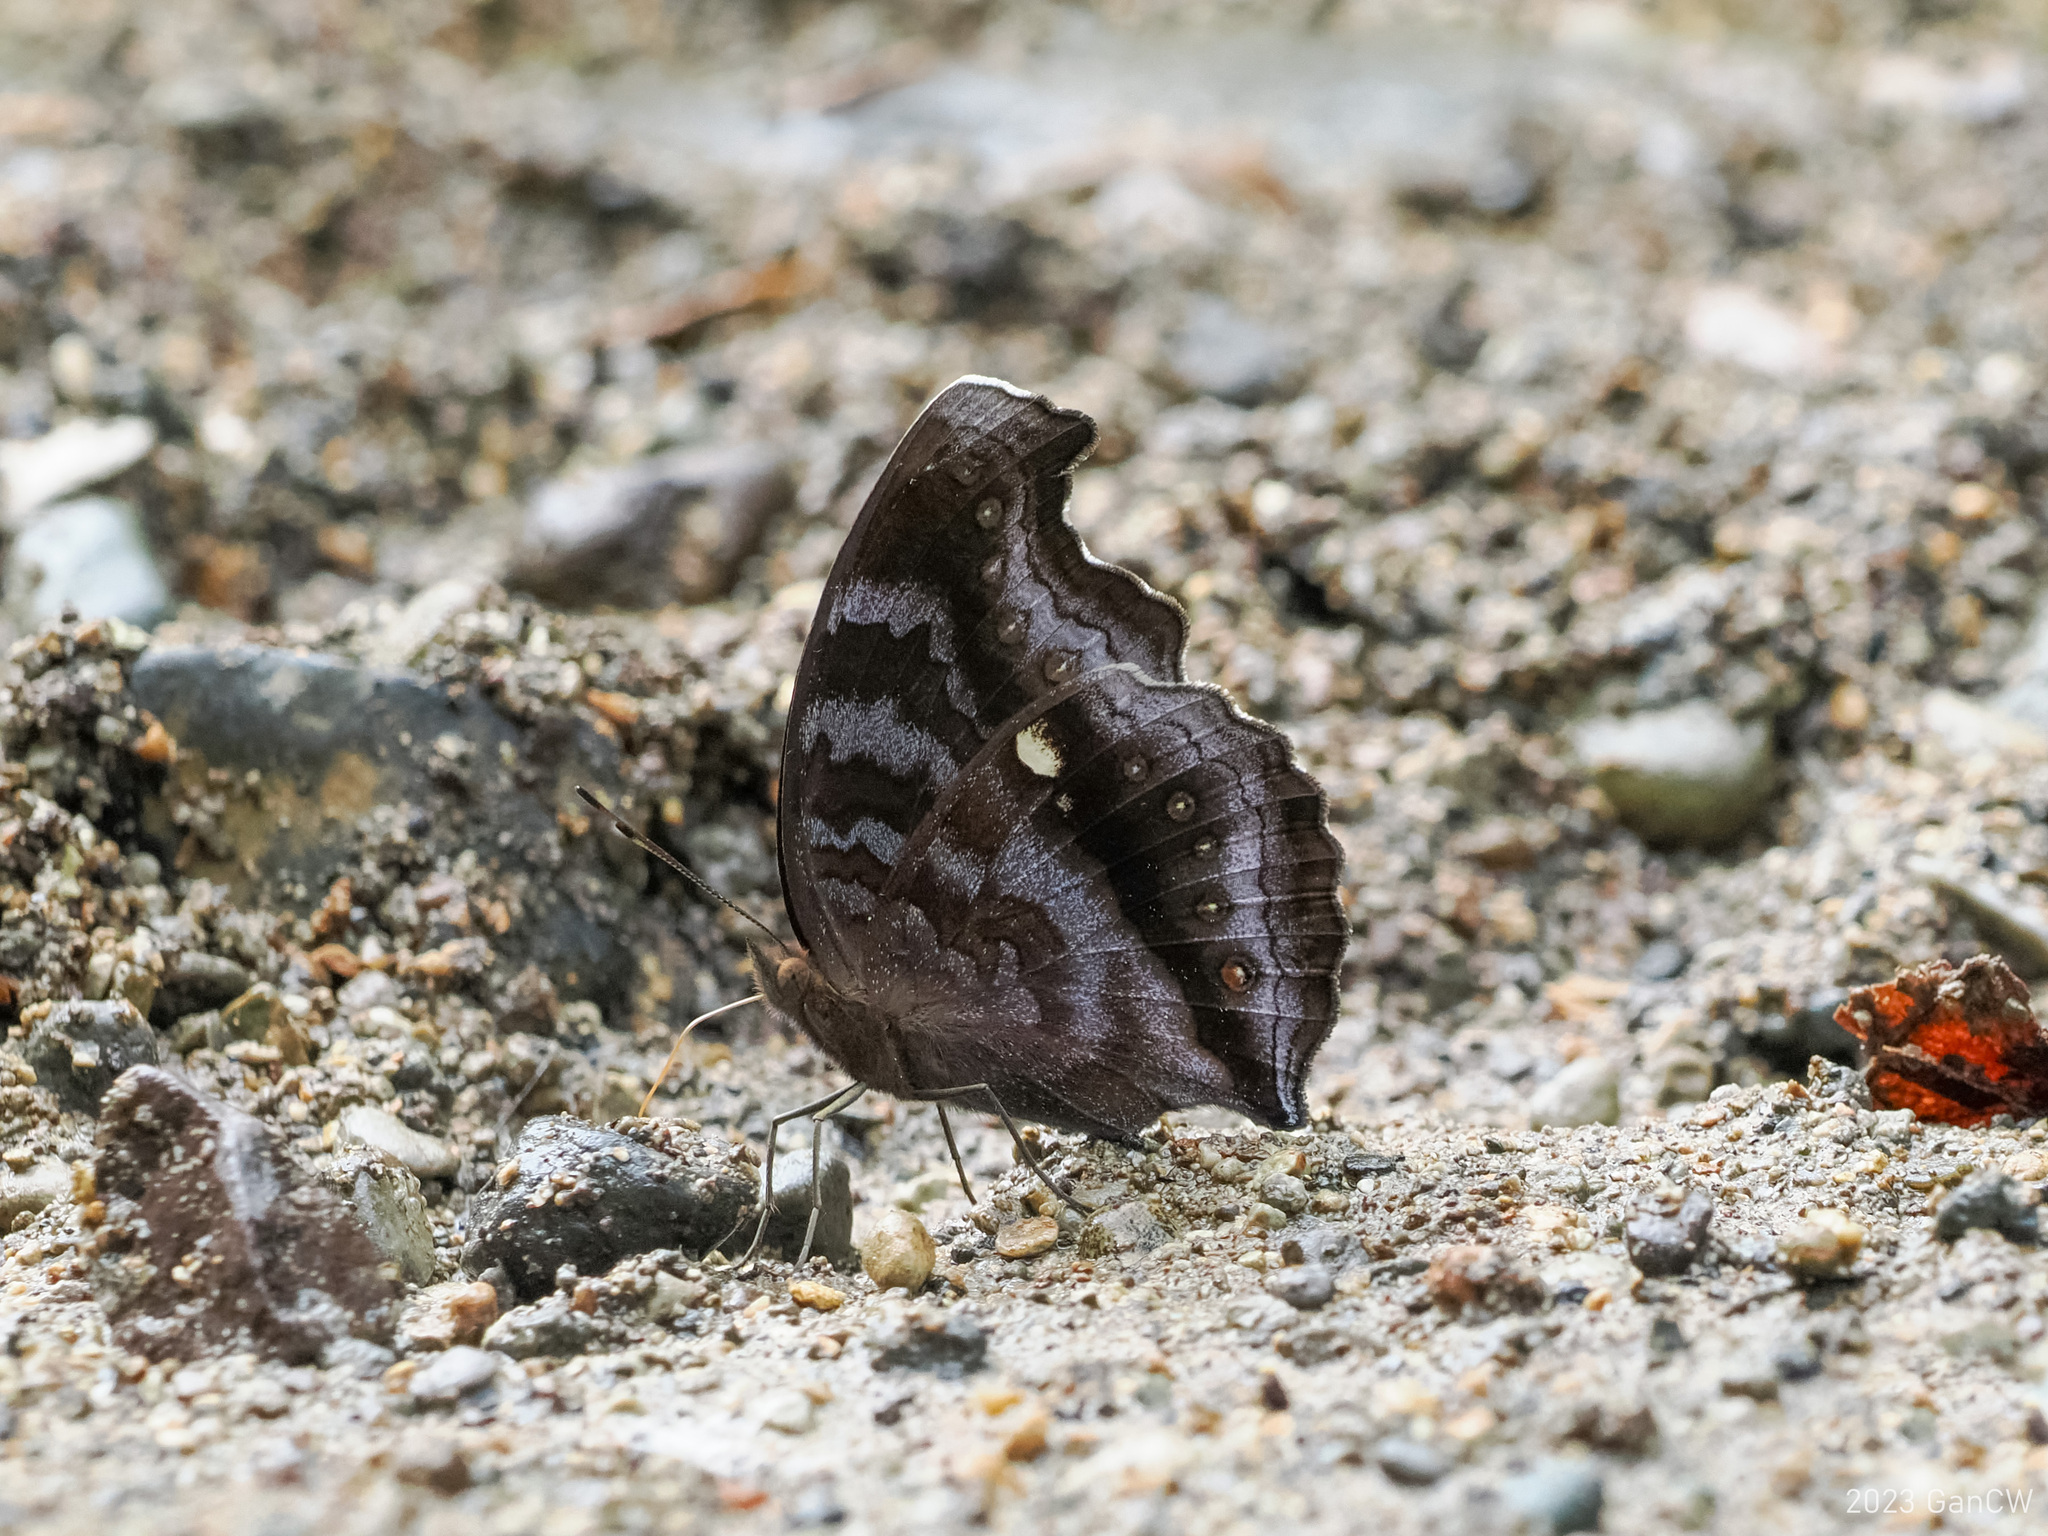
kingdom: Animalia
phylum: Arthropoda
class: Insecta
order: Lepidoptera
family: Nymphalidae
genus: Junonia
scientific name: Junonia
